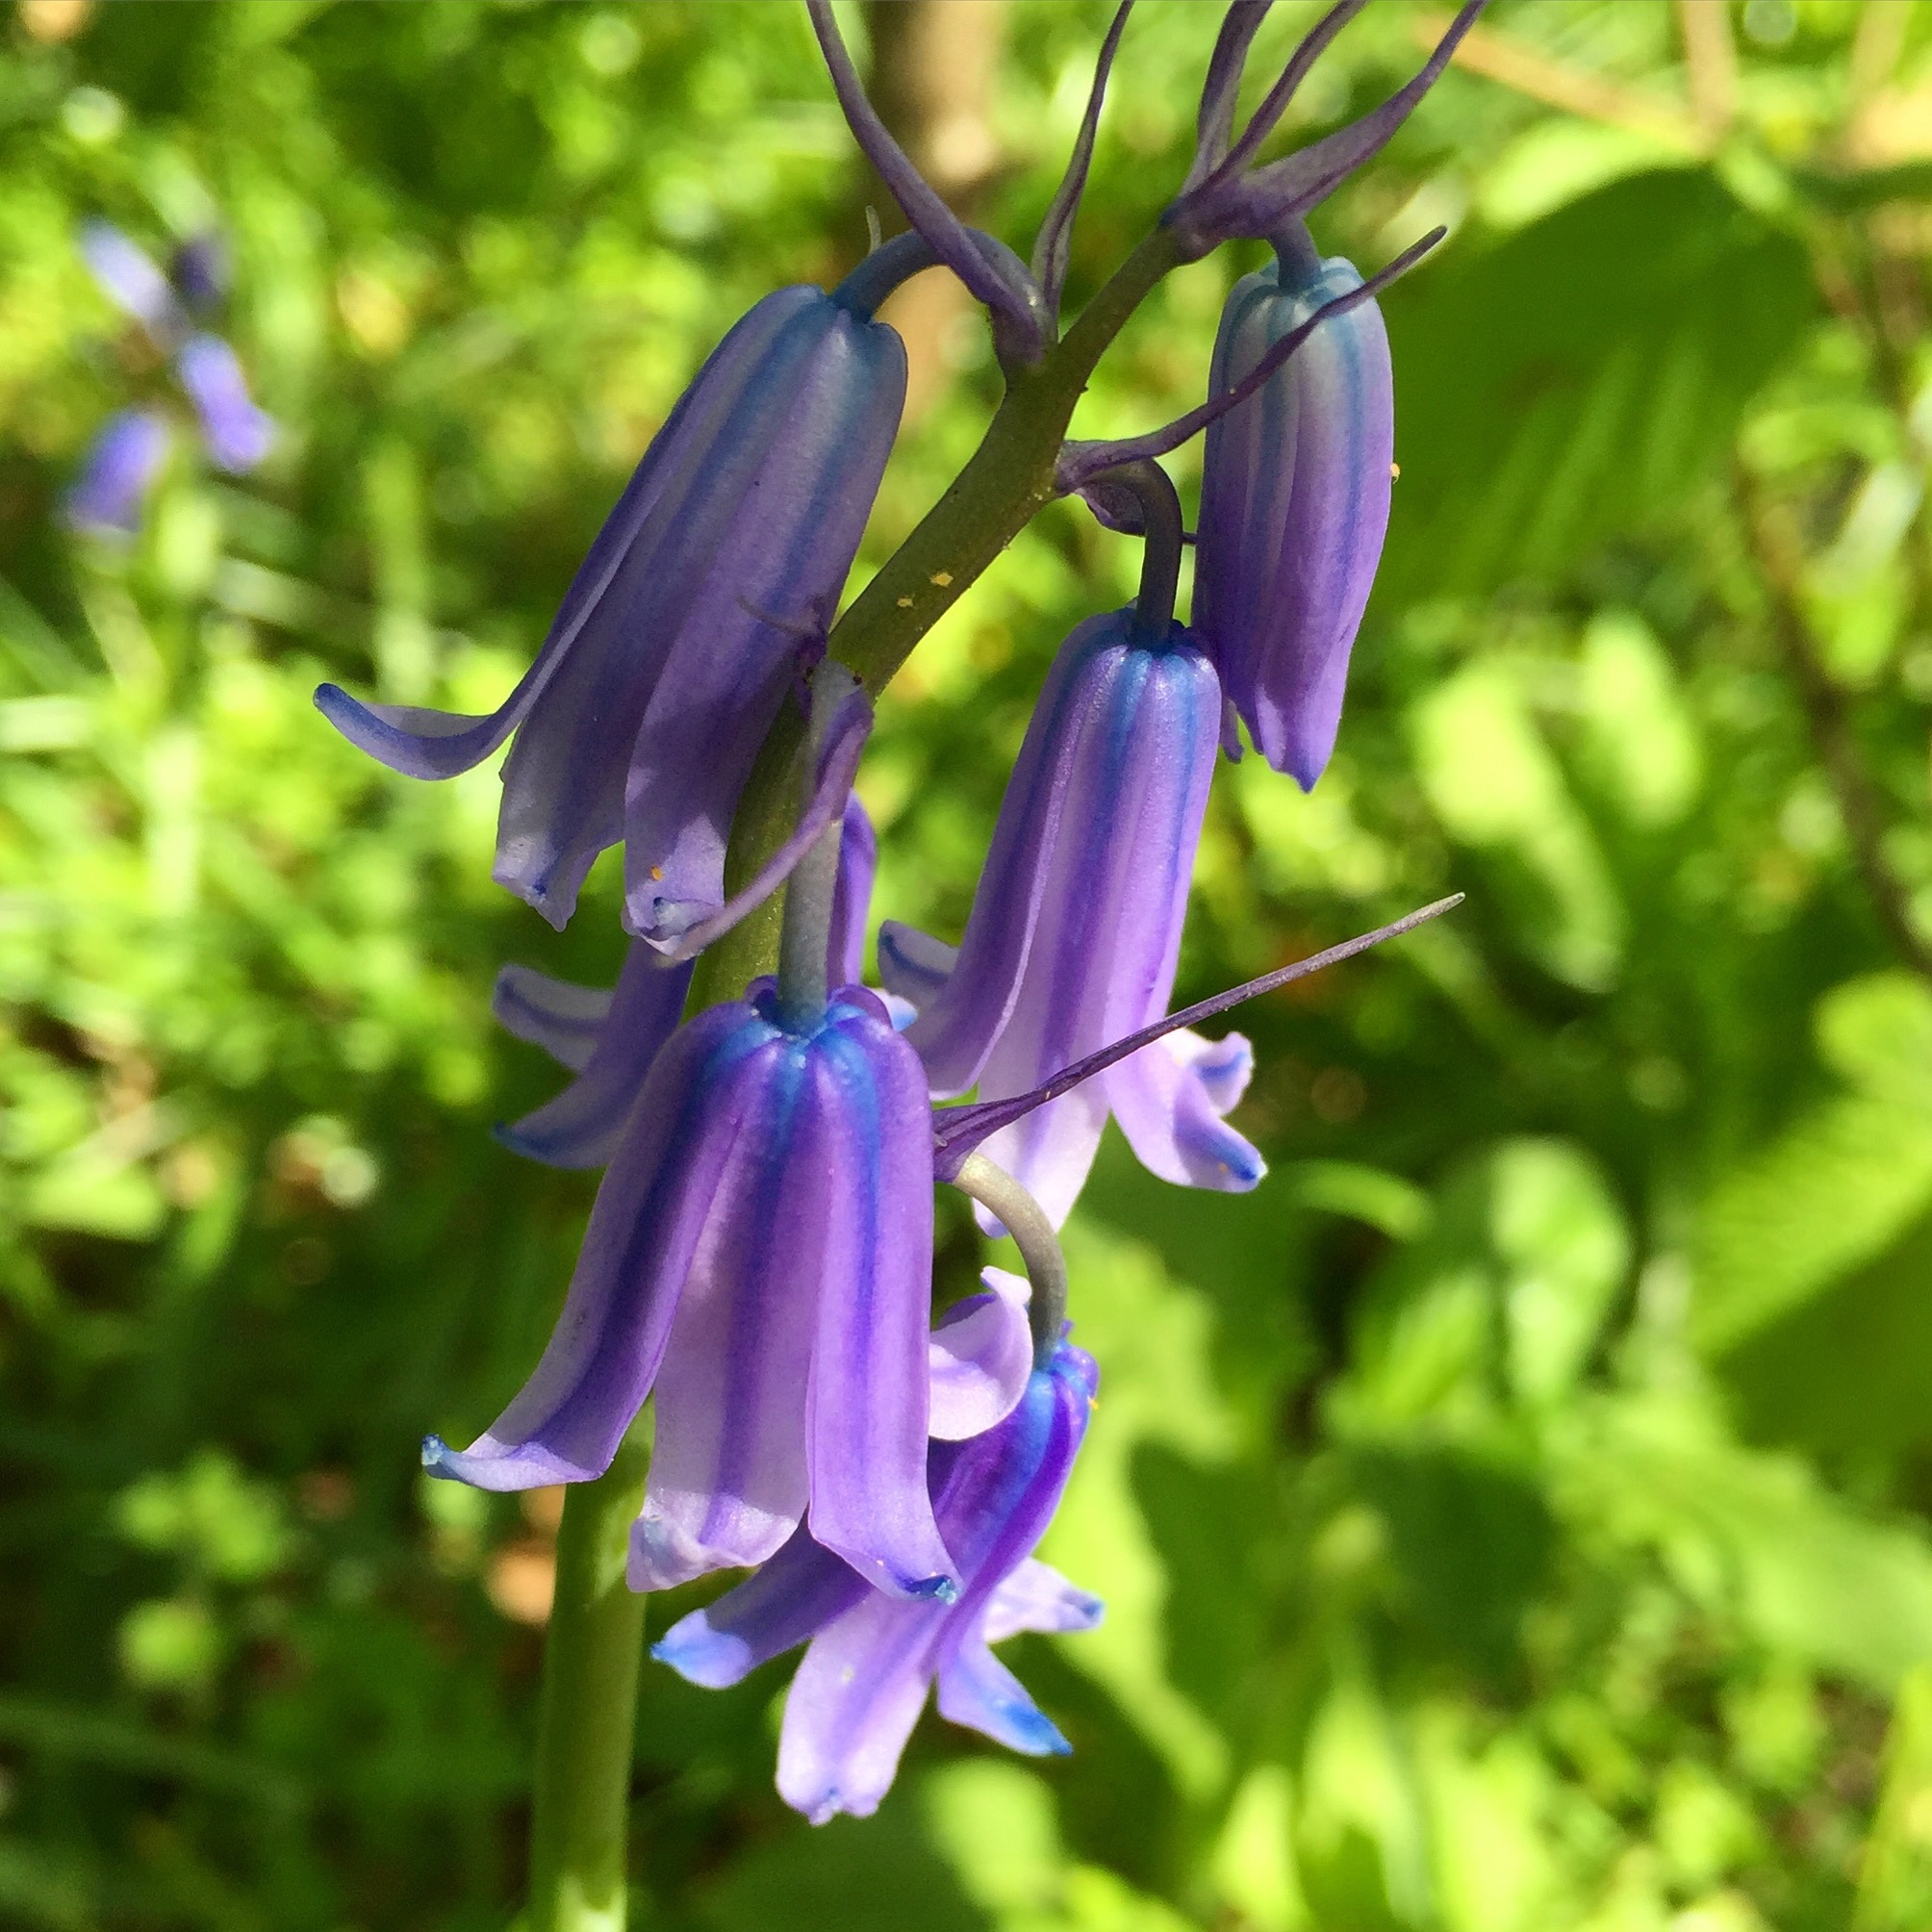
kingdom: Plantae
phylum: Tracheophyta
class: Liliopsida
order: Asparagales
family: Asparagaceae
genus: Hyacinthoides
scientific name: Hyacinthoides massartiana
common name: Hyacinthoides
